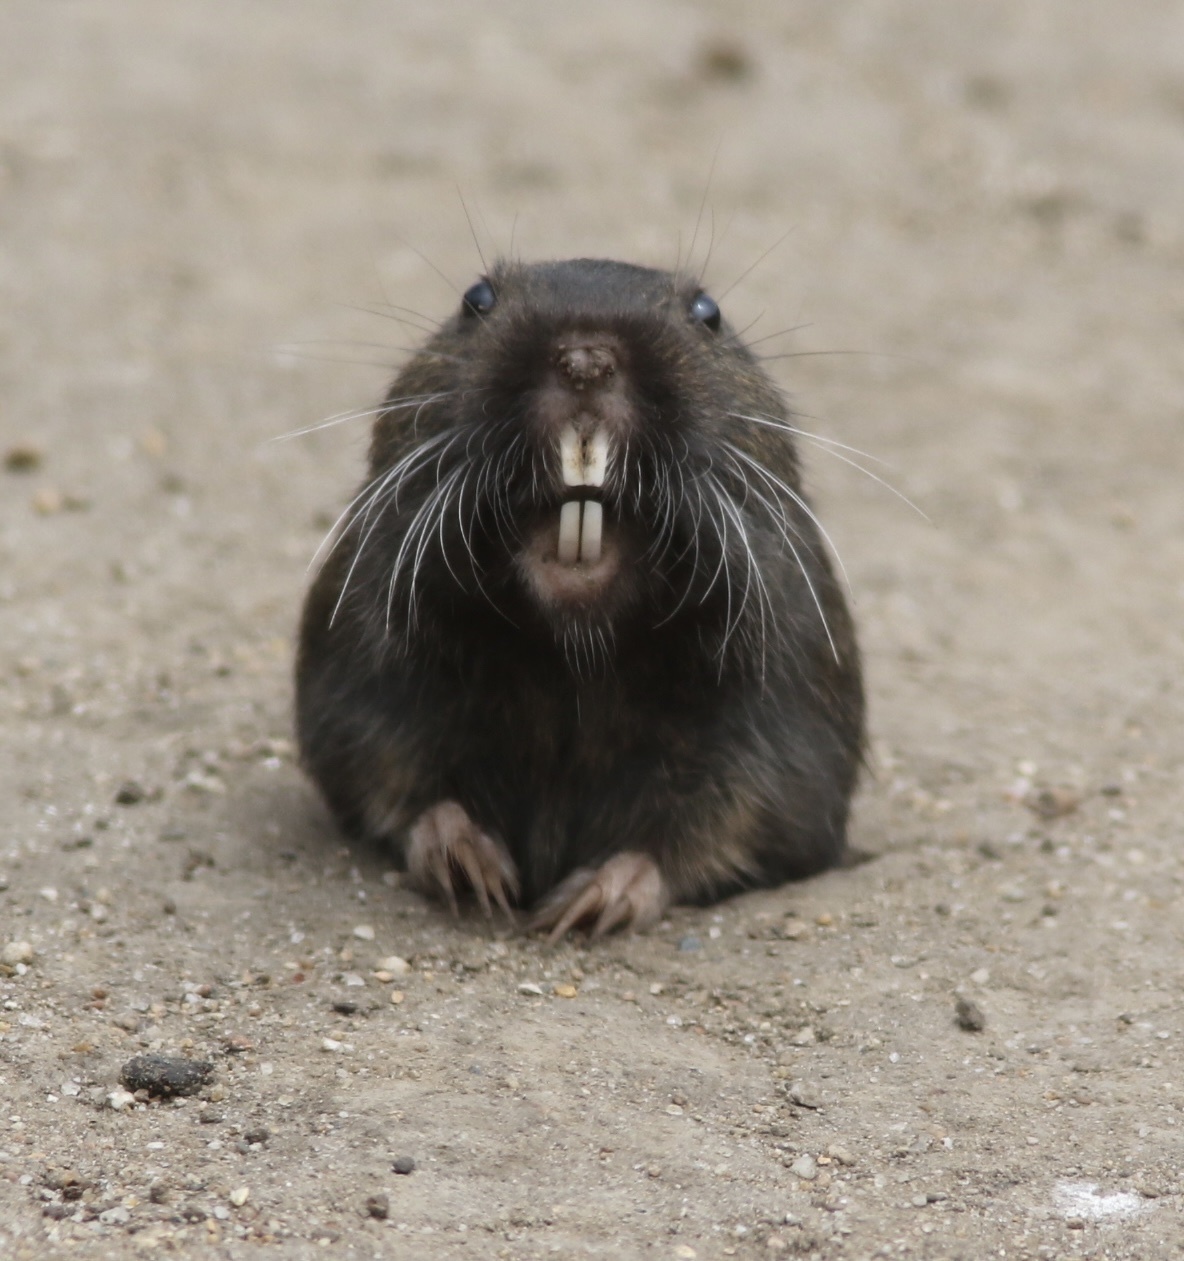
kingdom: Animalia
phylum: Chordata
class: Mammalia
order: Rodentia
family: Geomyidae
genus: Thomomys
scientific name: Thomomys bottae
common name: Botta's pocket gopher
